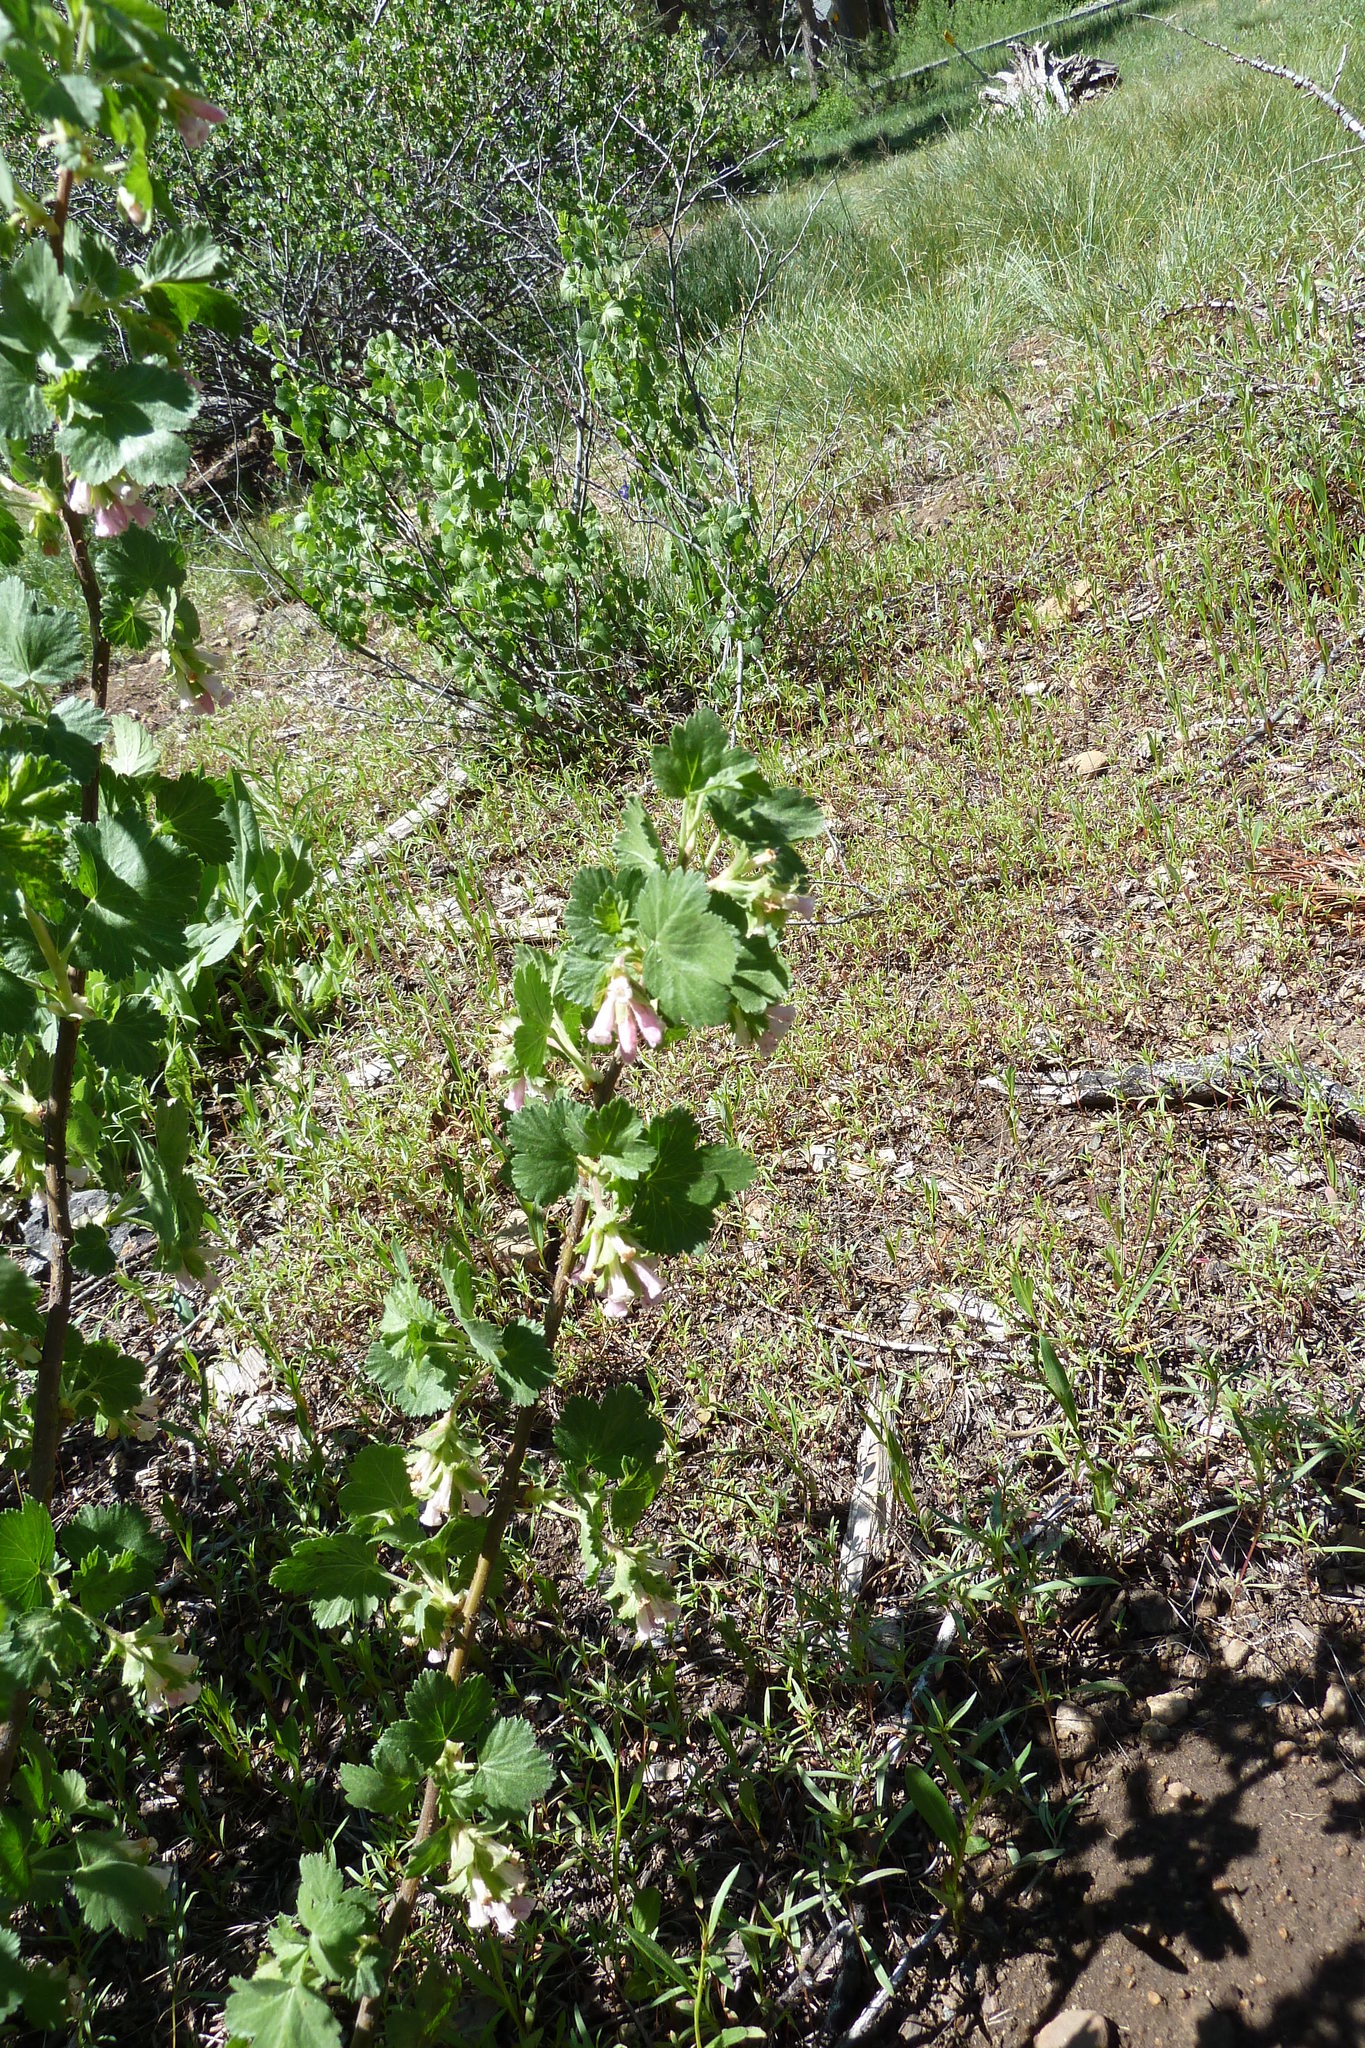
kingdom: Plantae
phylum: Tracheophyta
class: Magnoliopsida
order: Saxifragales
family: Grossulariaceae
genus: Ribes
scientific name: Ribes cereum
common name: Wax currant
